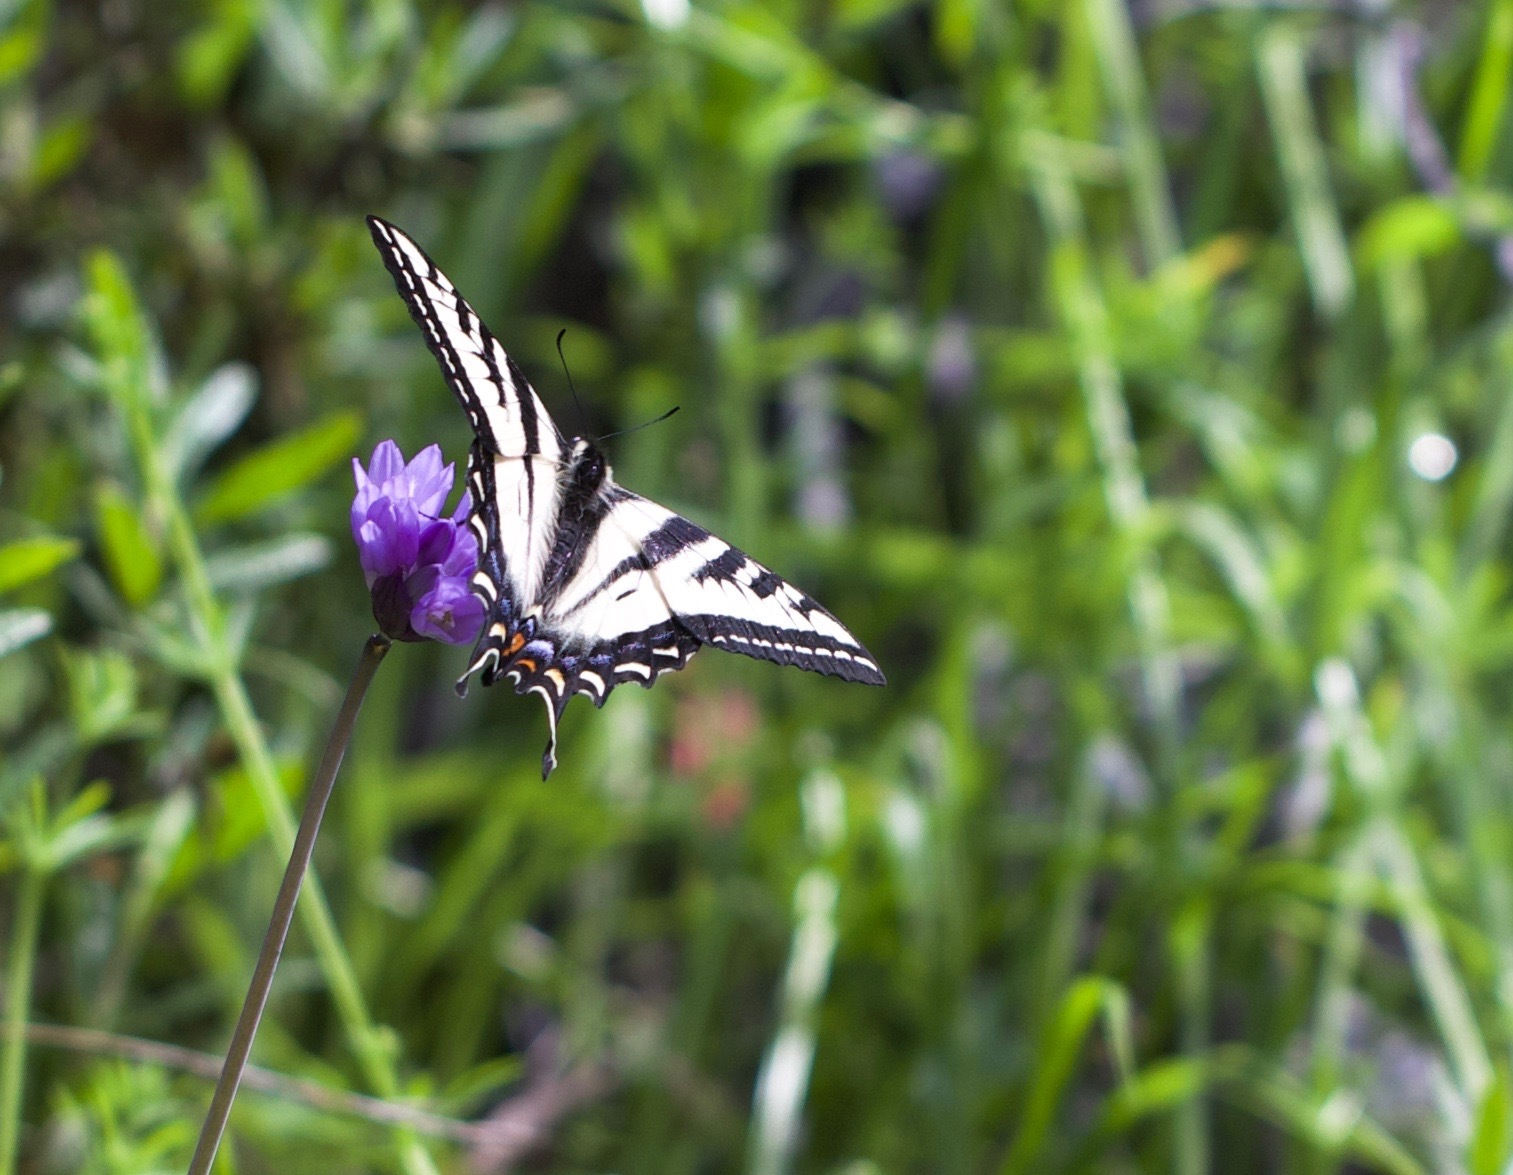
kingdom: Animalia
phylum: Arthropoda
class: Insecta
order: Lepidoptera
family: Papilionidae
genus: Papilio
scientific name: Papilio eurymedon
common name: Pale tiger swallowtail
